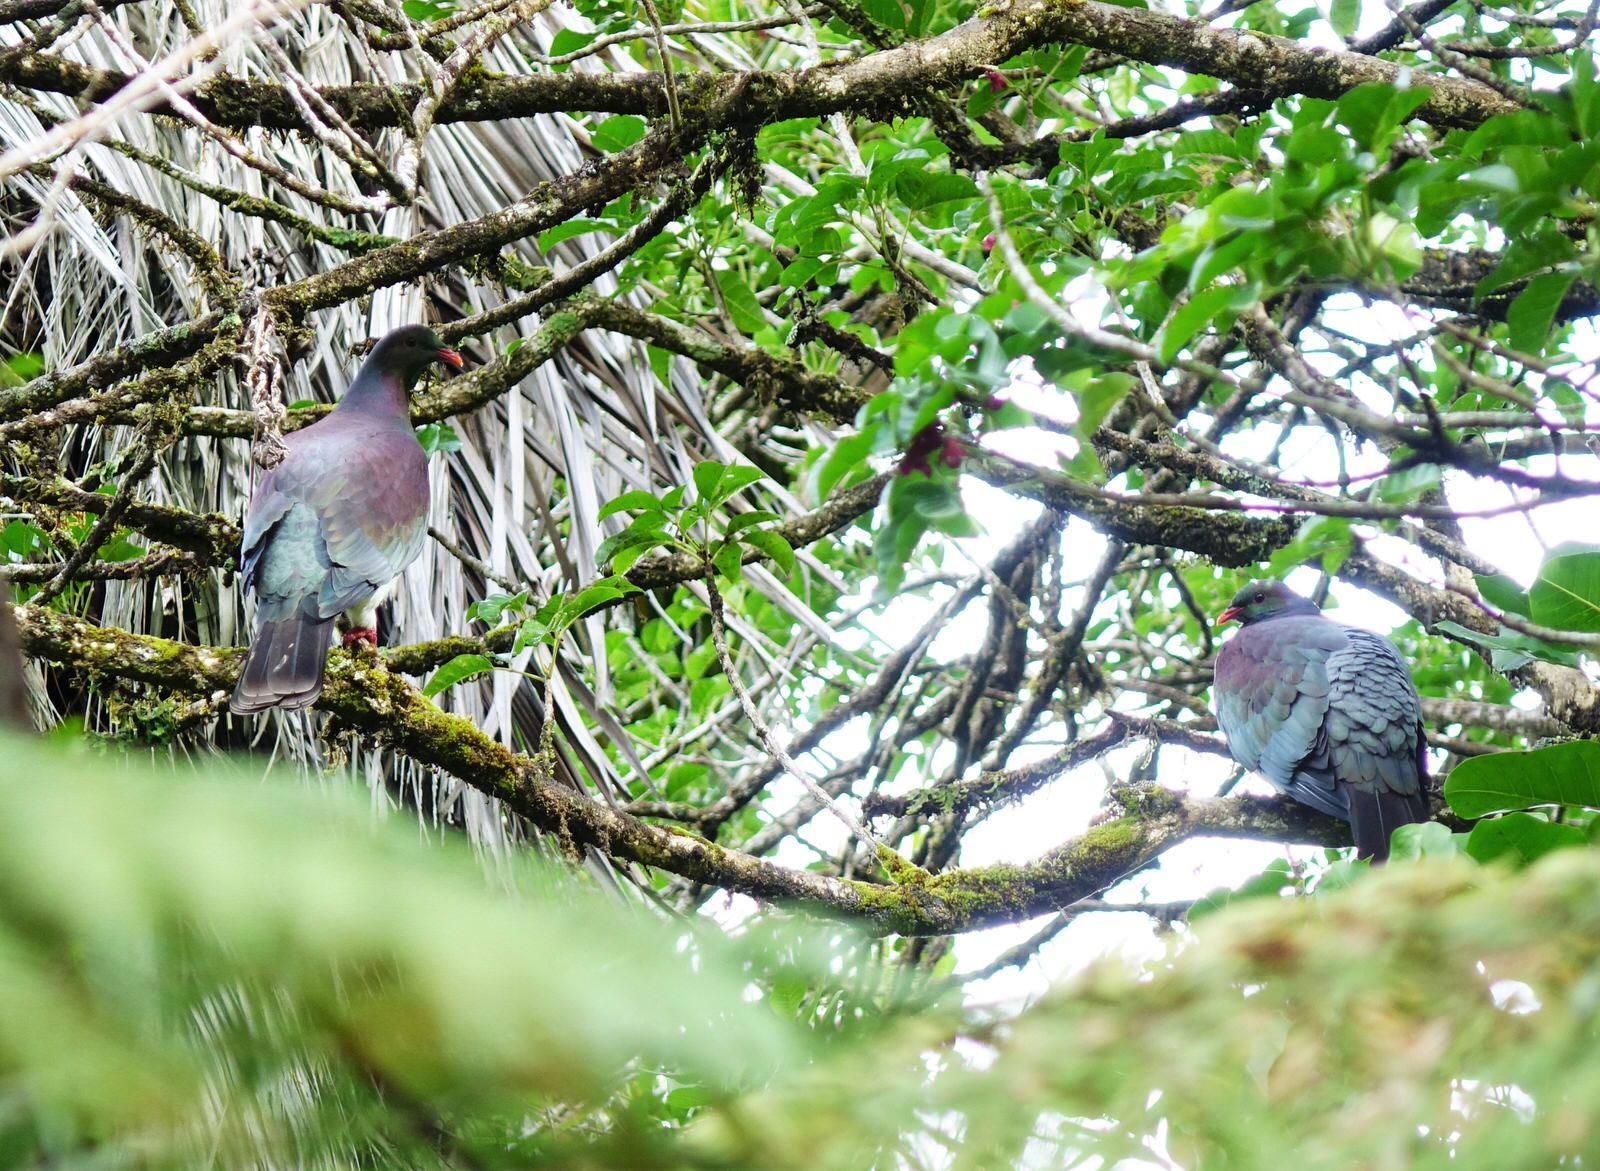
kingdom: Animalia
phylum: Chordata
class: Aves
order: Columbiformes
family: Columbidae
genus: Hemiphaga
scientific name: Hemiphaga novaeseelandiae
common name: New zealand pigeon
